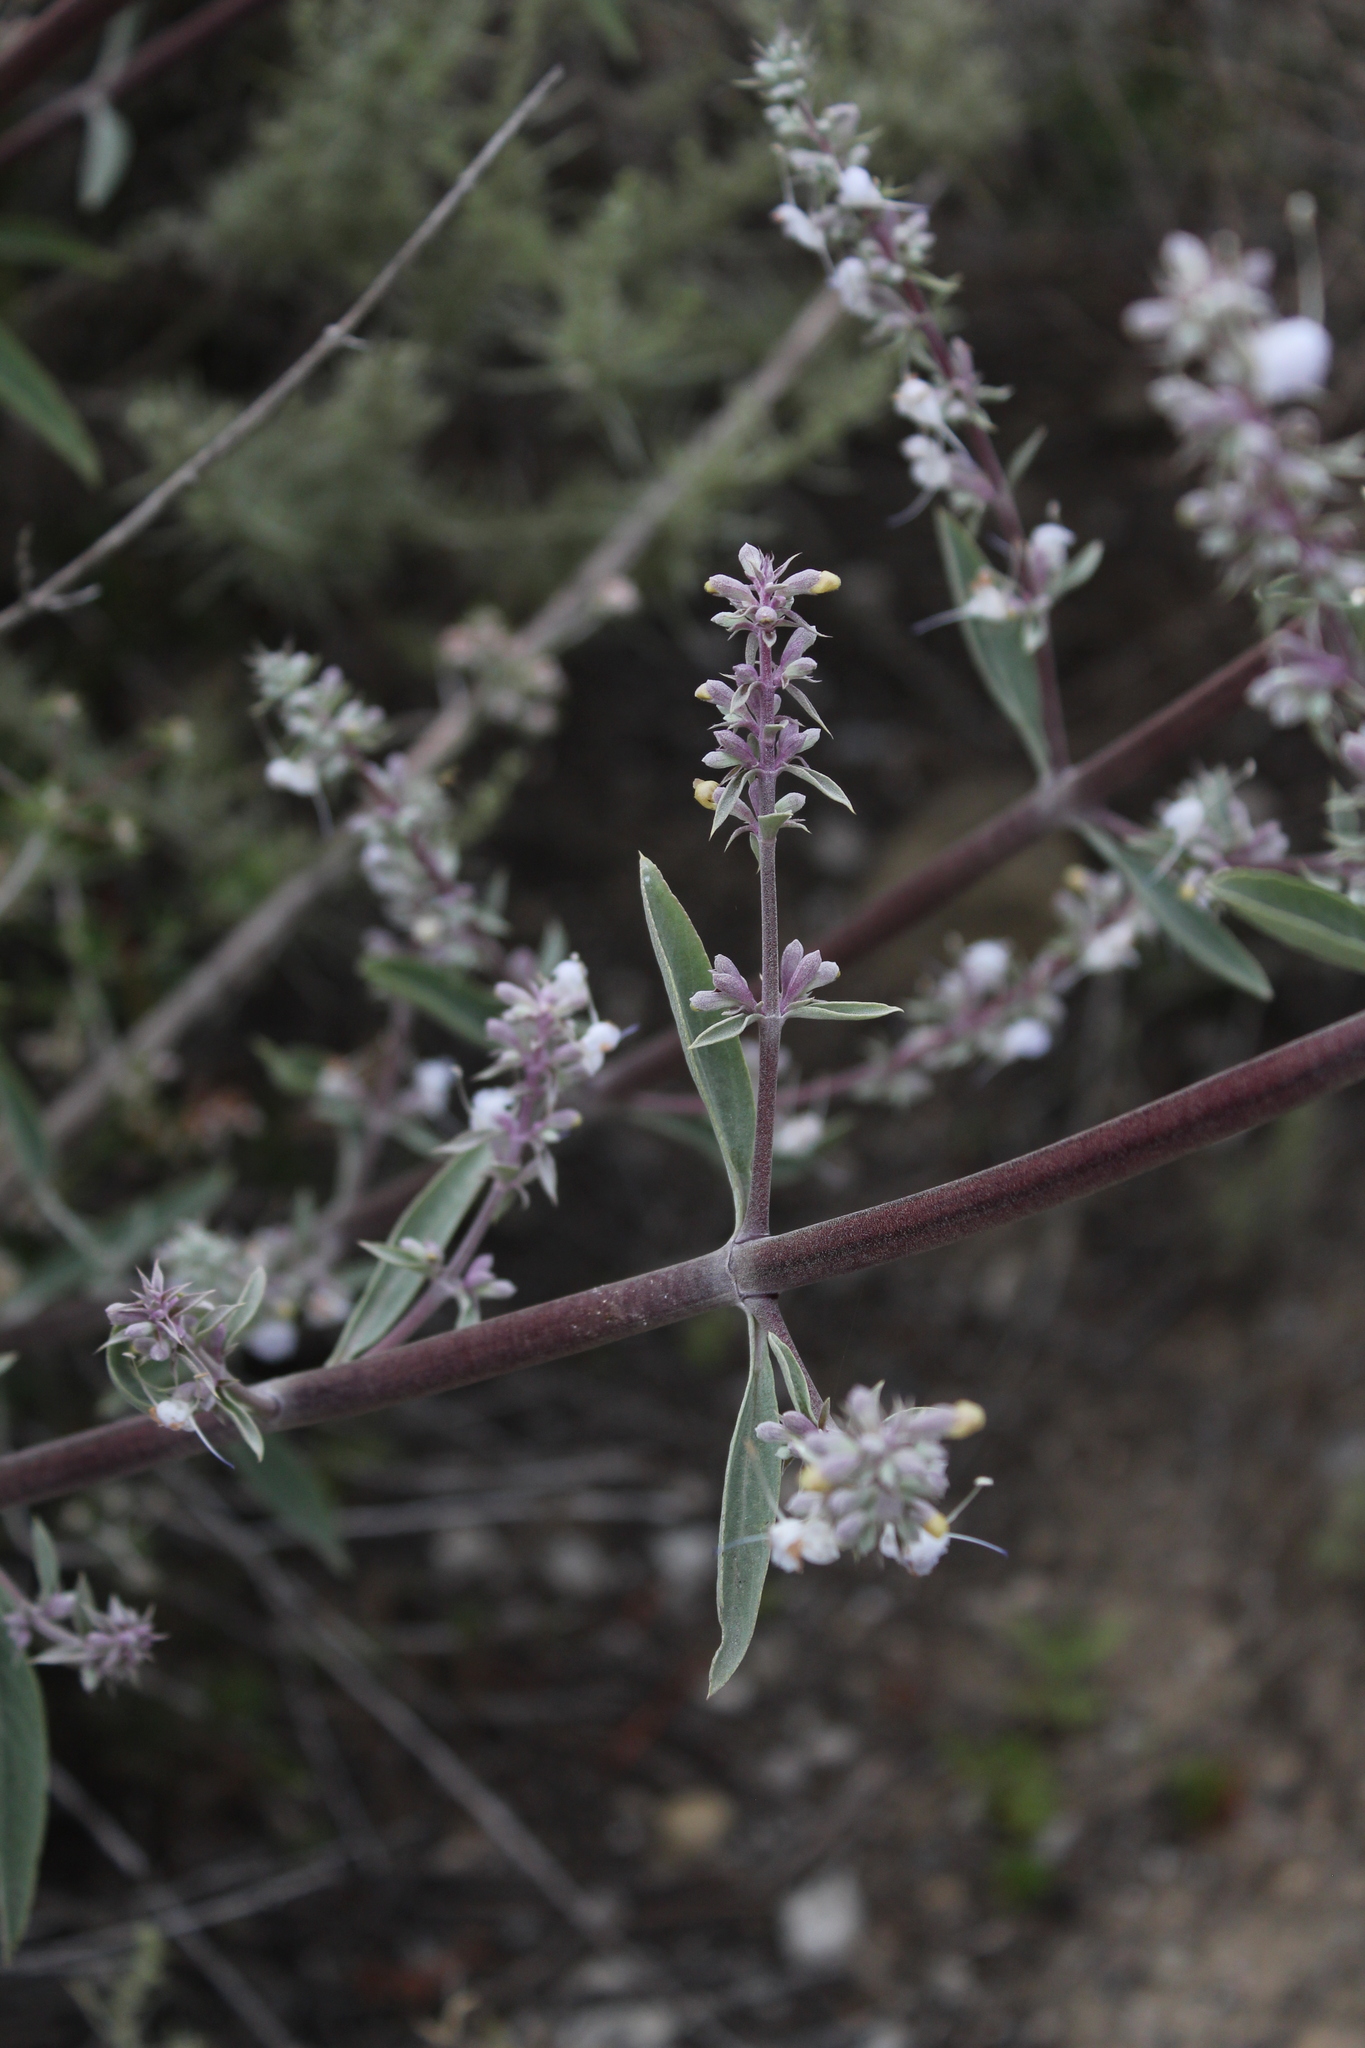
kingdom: Plantae
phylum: Tracheophyta
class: Magnoliopsida
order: Lamiales
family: Lamiaceae
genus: Salvia
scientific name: Salvia apiana
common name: White sage
